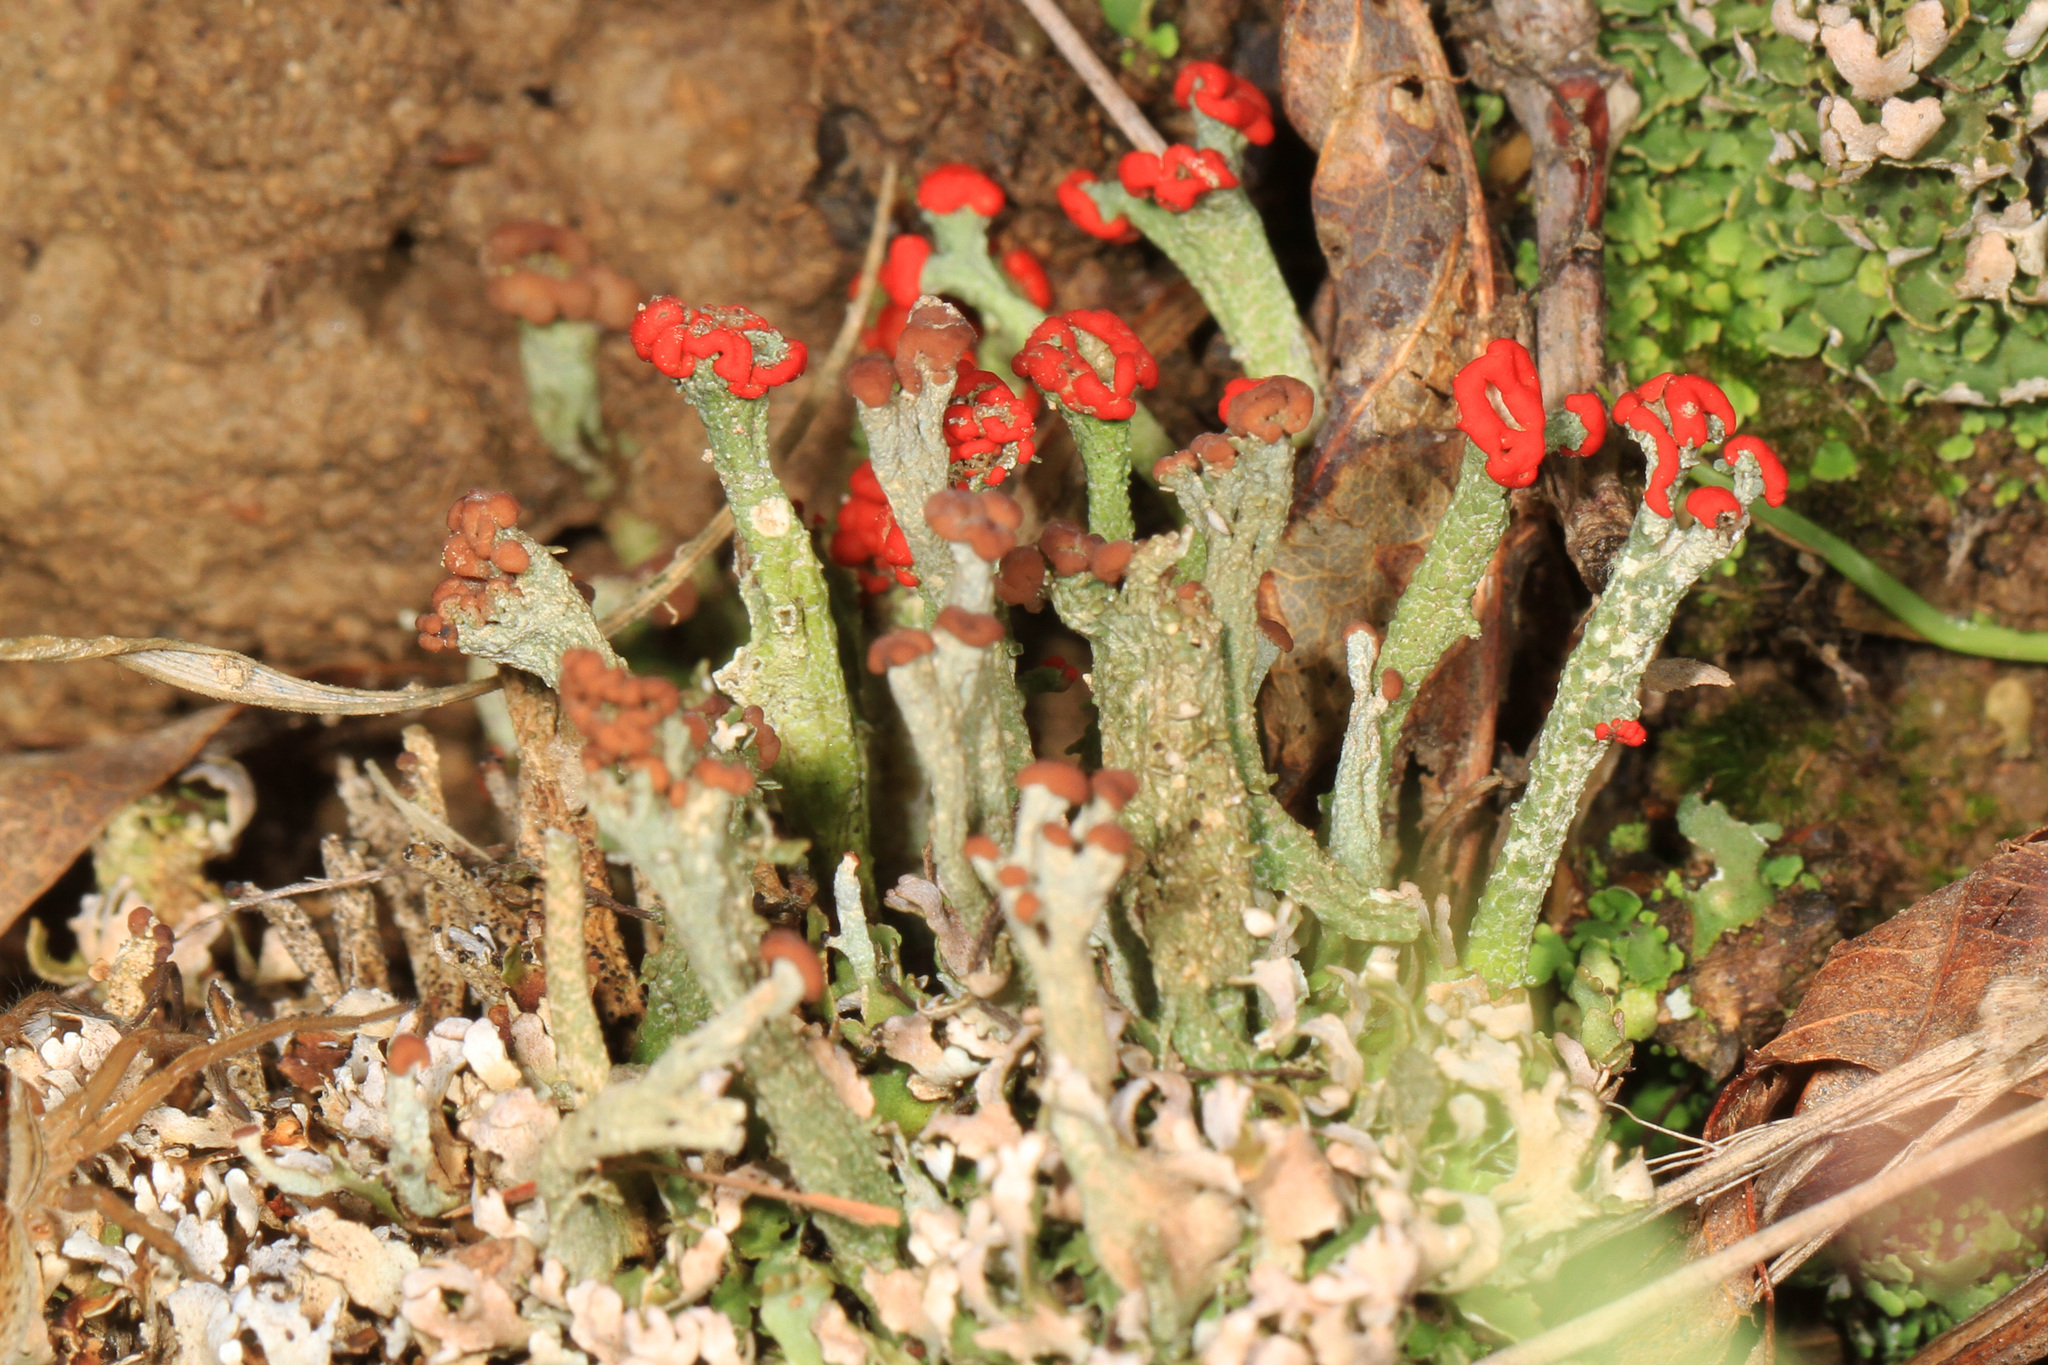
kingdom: Fungi
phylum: Ascomycota
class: Lecanoromycetes
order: Lecanorales
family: Cladoniaceae
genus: Cladonia
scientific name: Cladonia cristatella
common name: British soldier lichen
